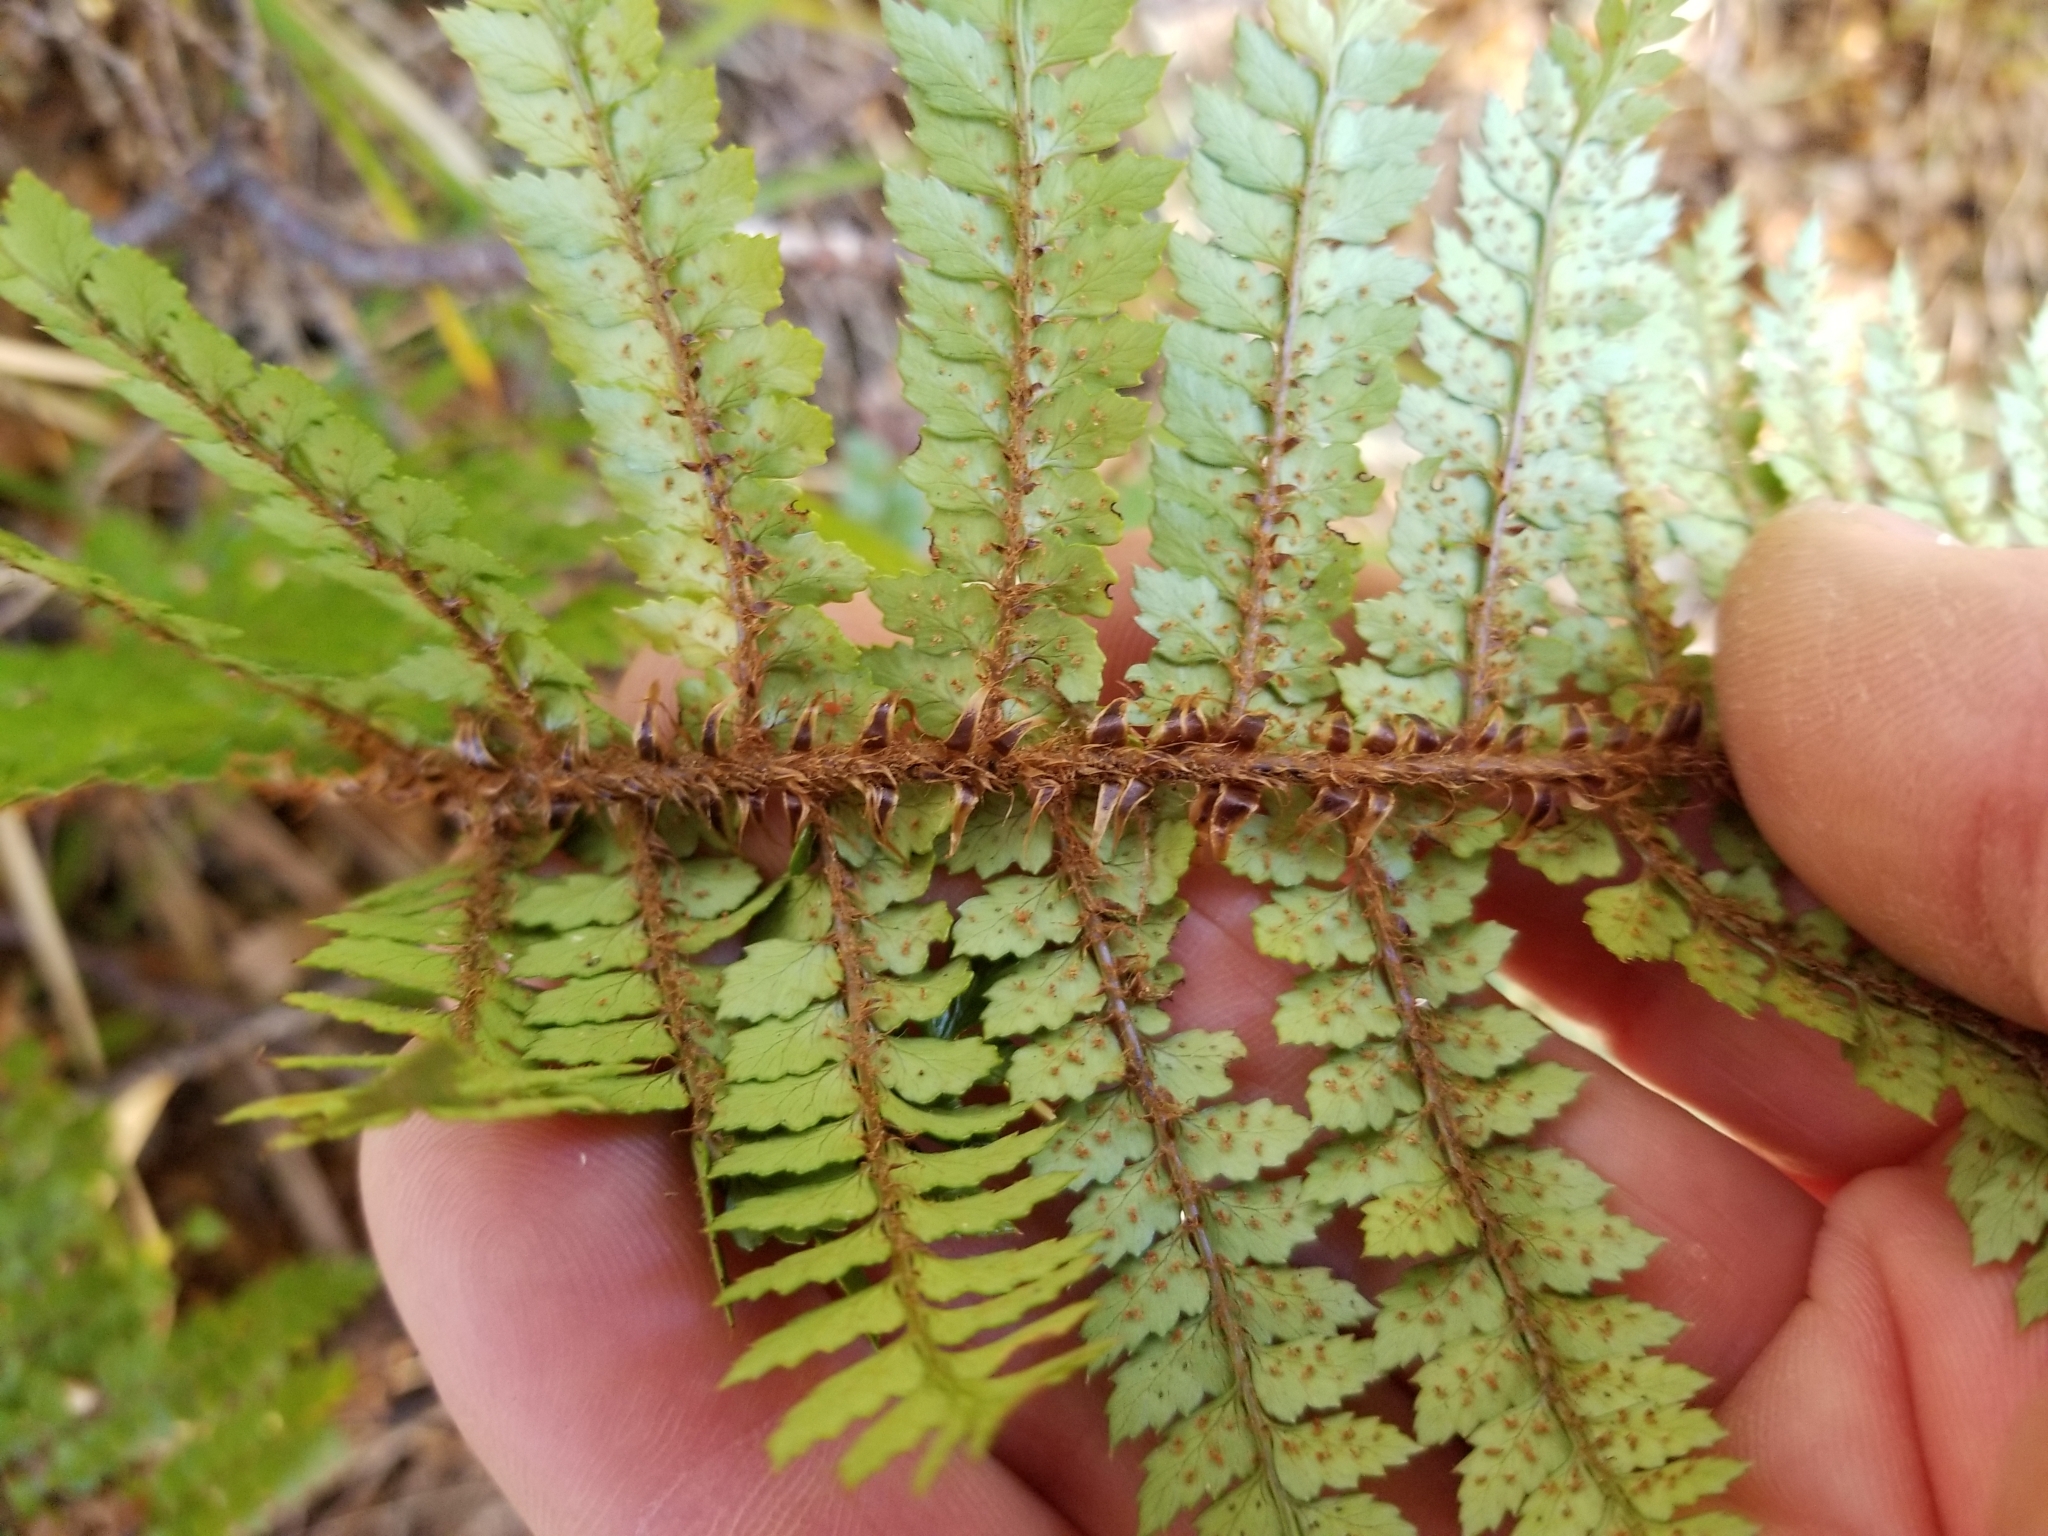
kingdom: Plantae
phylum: Tracheophyta
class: Polypodiopsida
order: Polypodiales
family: Dryopteridaceae
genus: Polystichum
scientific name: Polystichum vestitum
